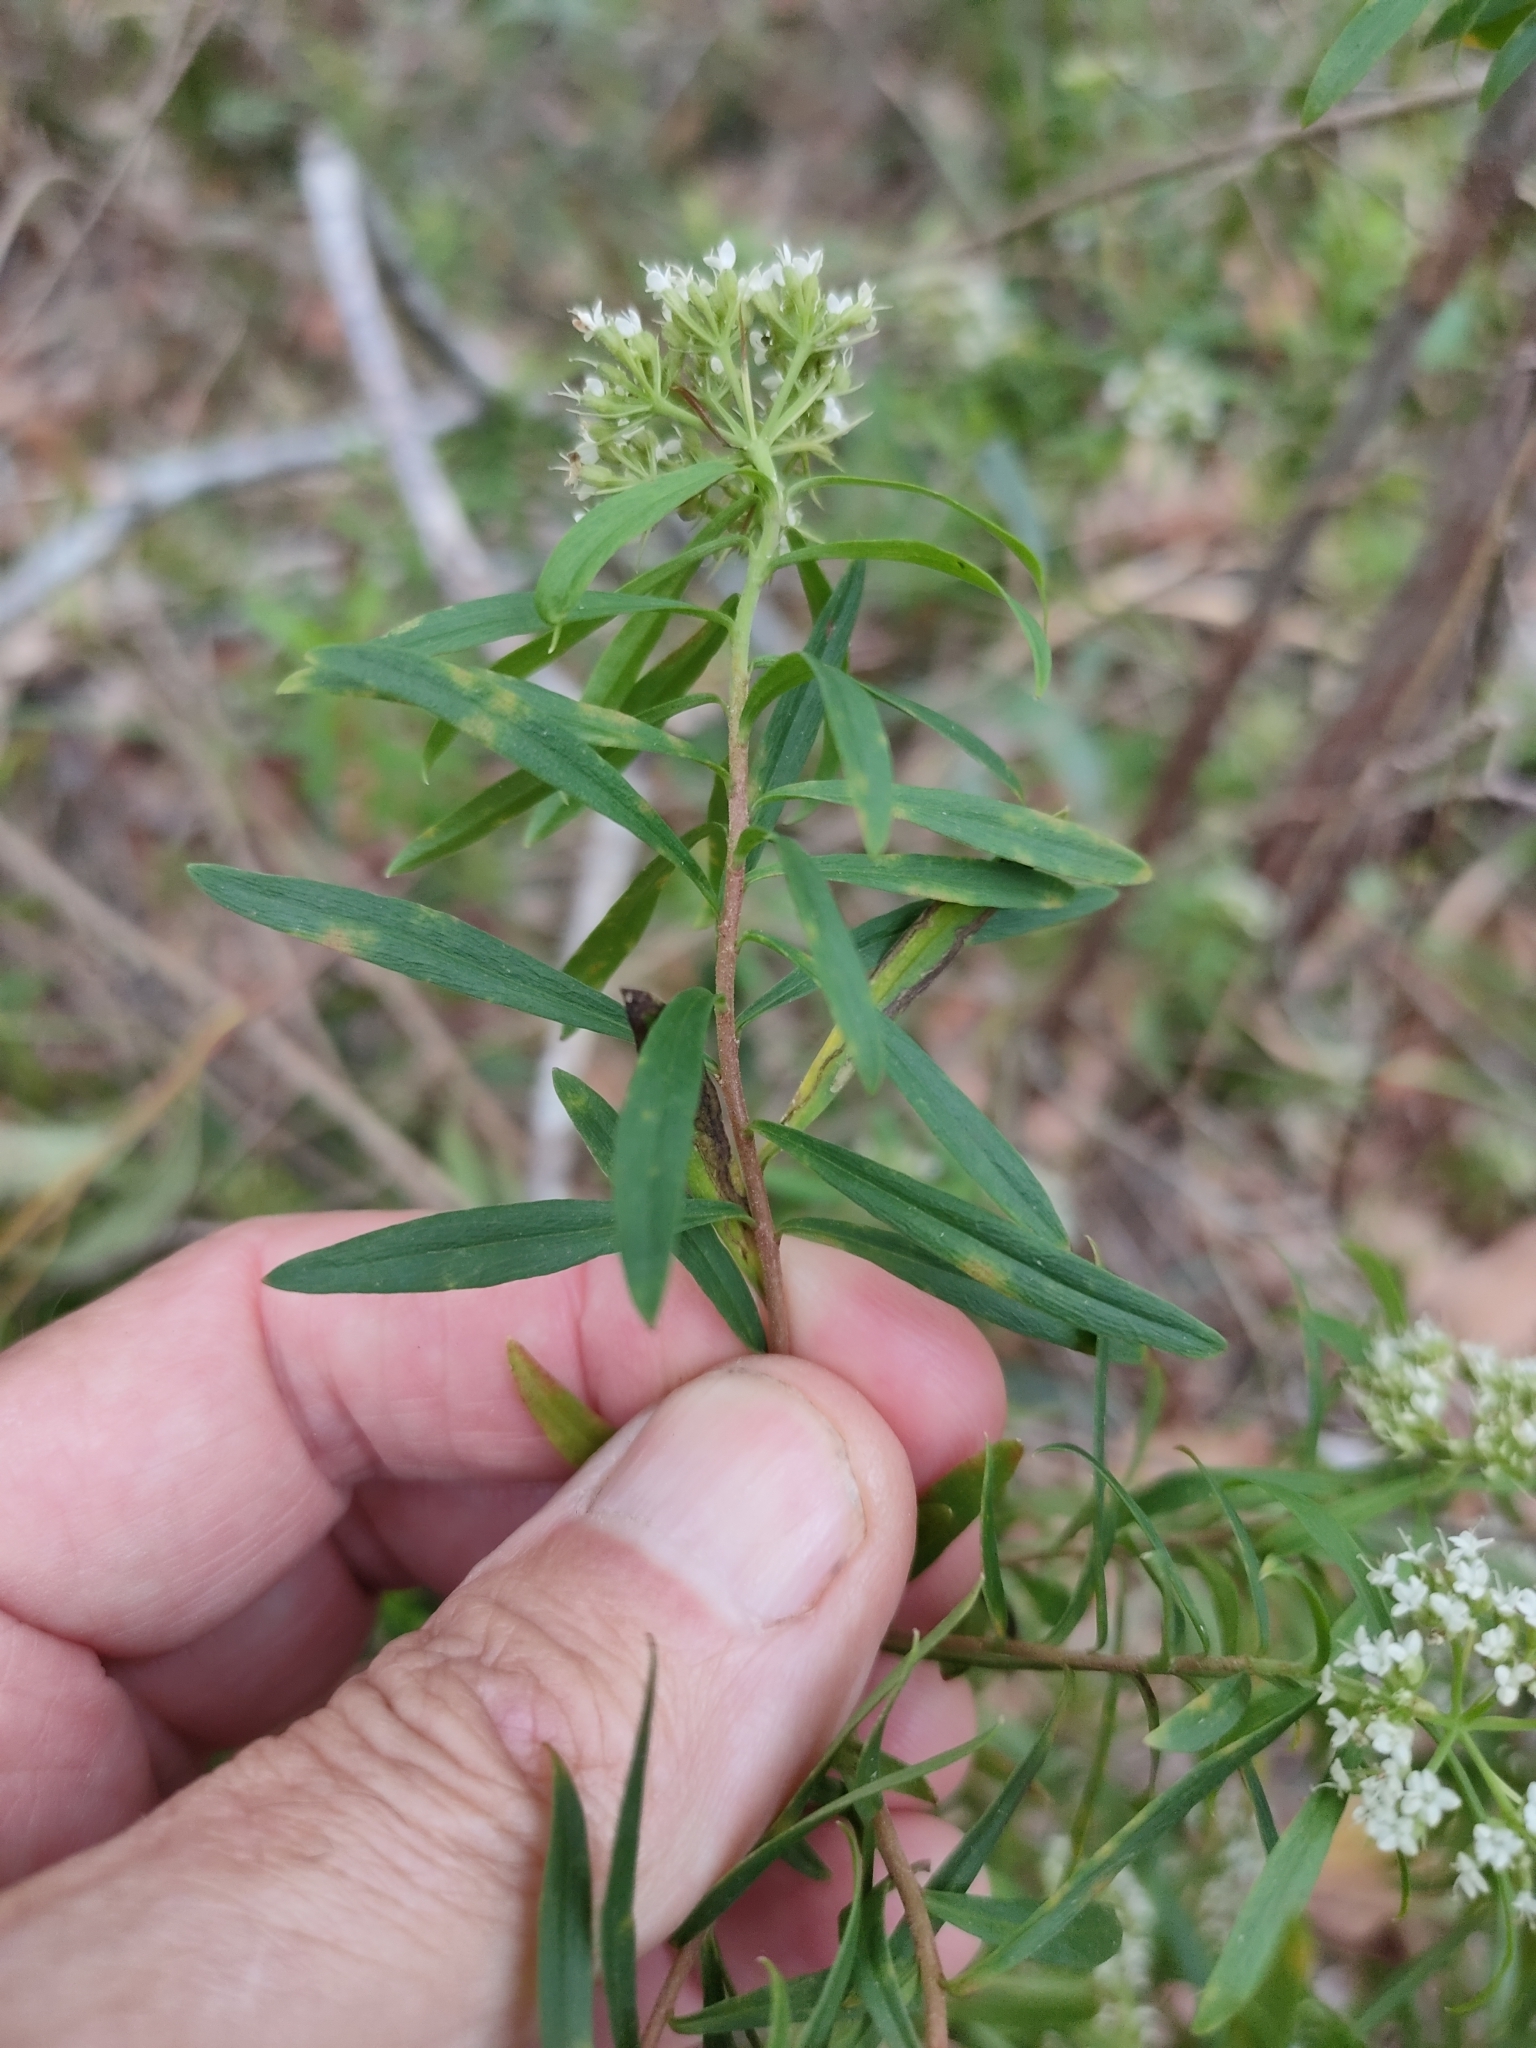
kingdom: Plantae
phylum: Tracheophyta
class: Magnoliopsida
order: Apiales
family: Apiaceae
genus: Platysace
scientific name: Platysace lanceolata
